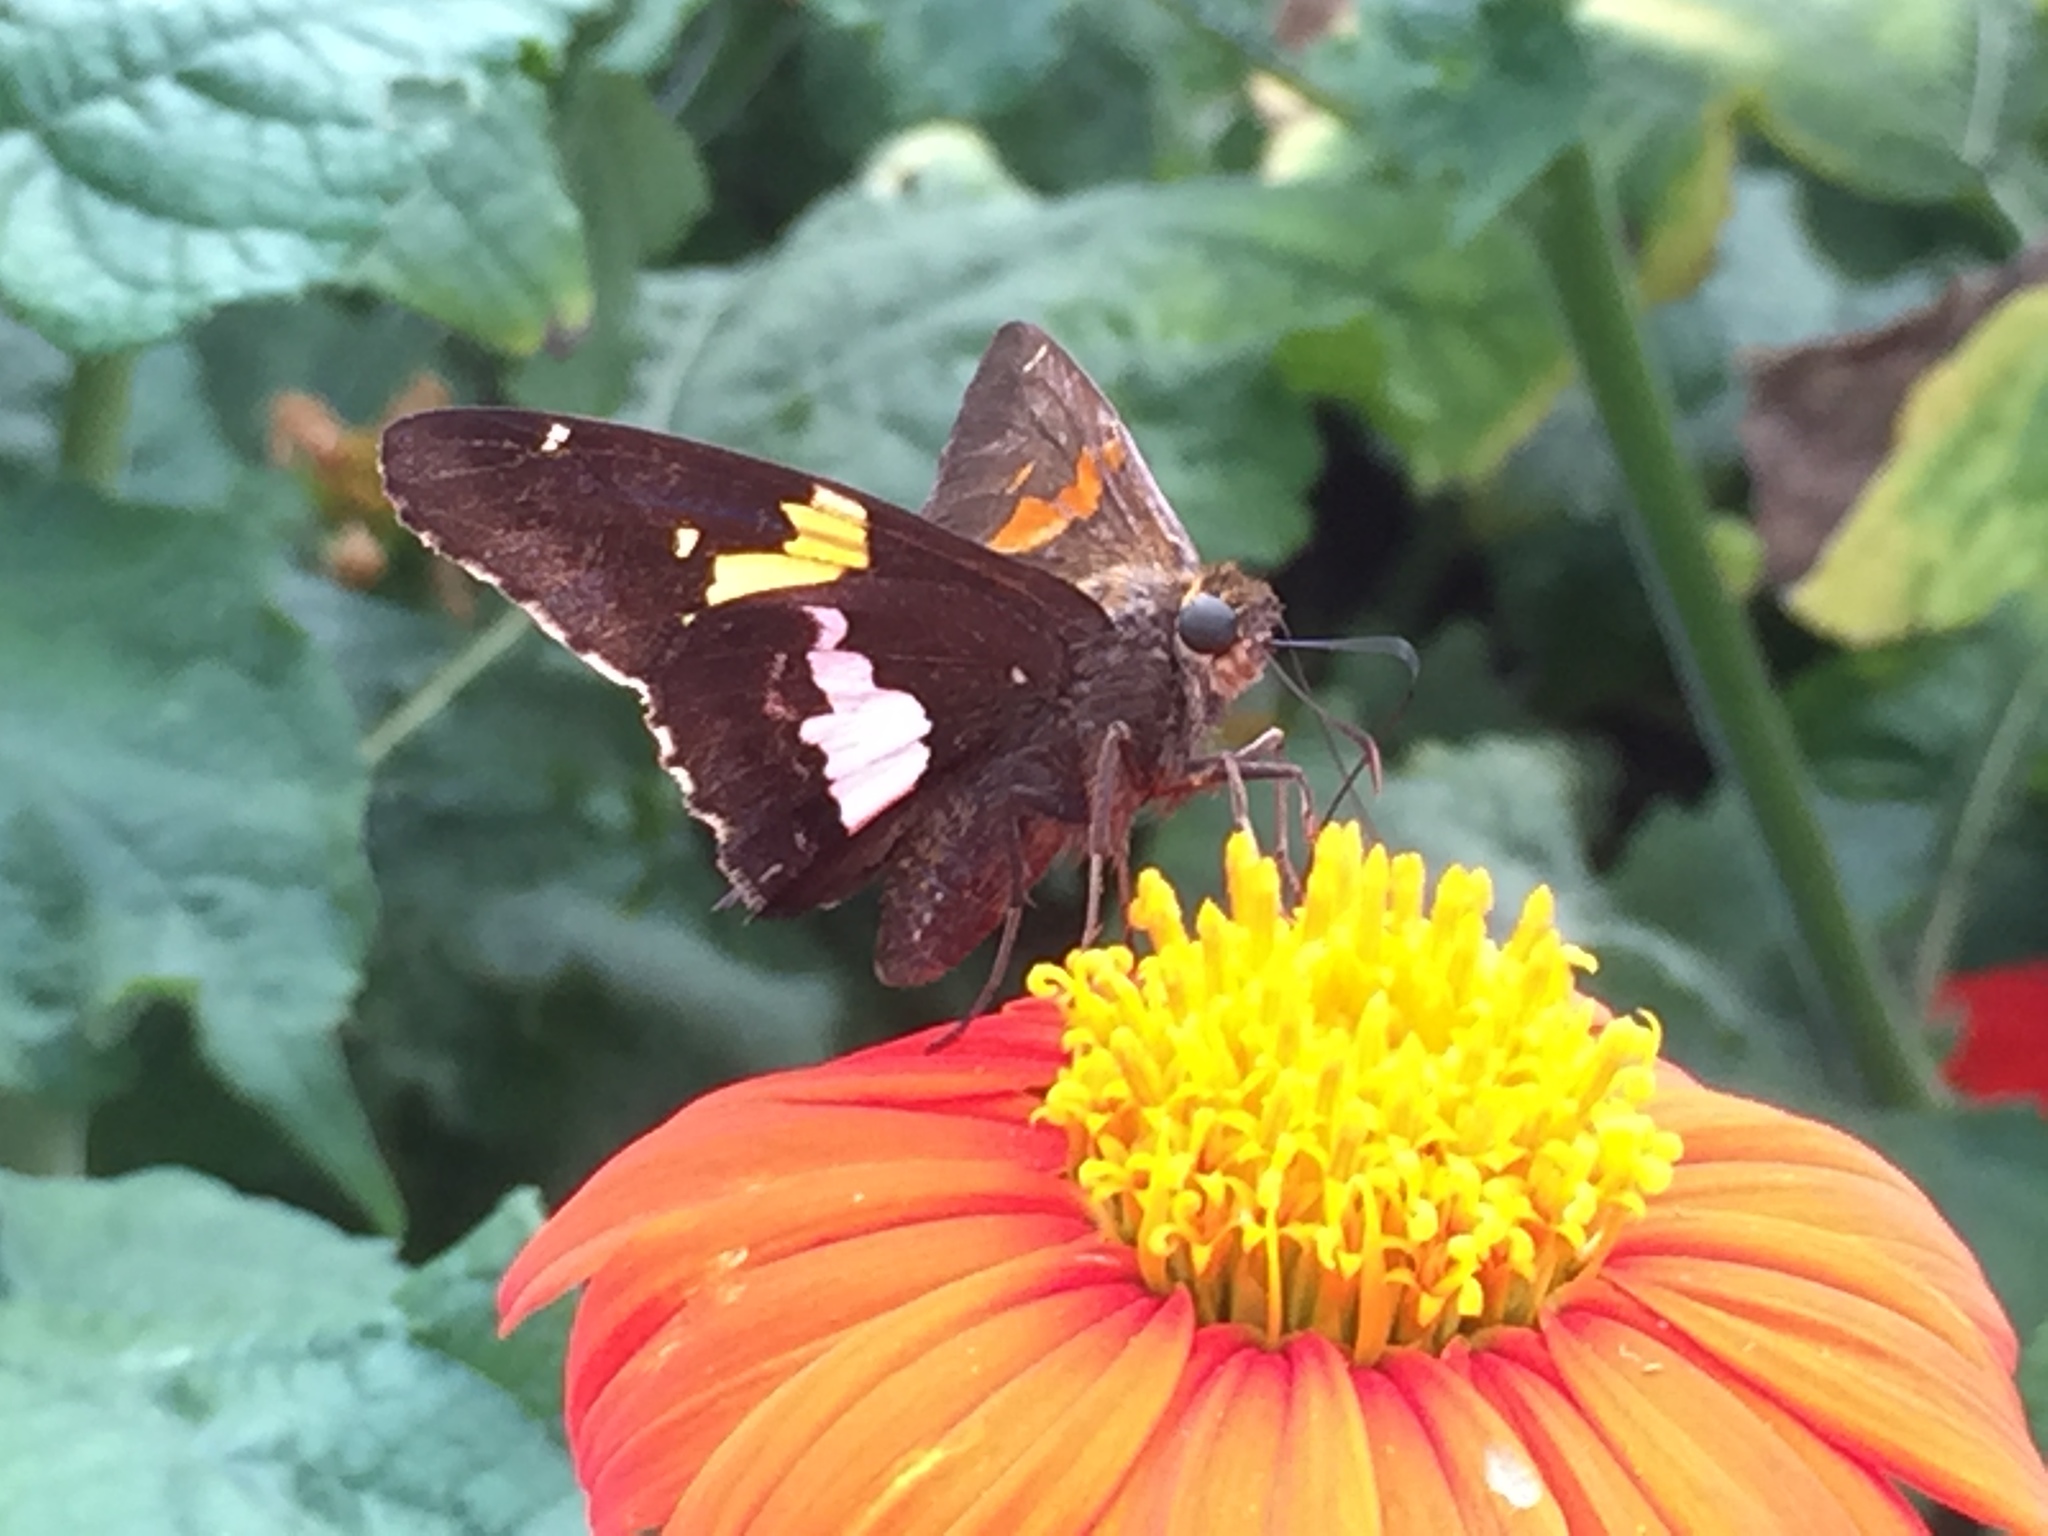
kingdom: Animalia
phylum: Arthropoda
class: Insecta
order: Lepidoptera
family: Hesperiidae
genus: Epargyreus
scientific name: Epargyreus clarus
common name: Silver-spotted skipper
